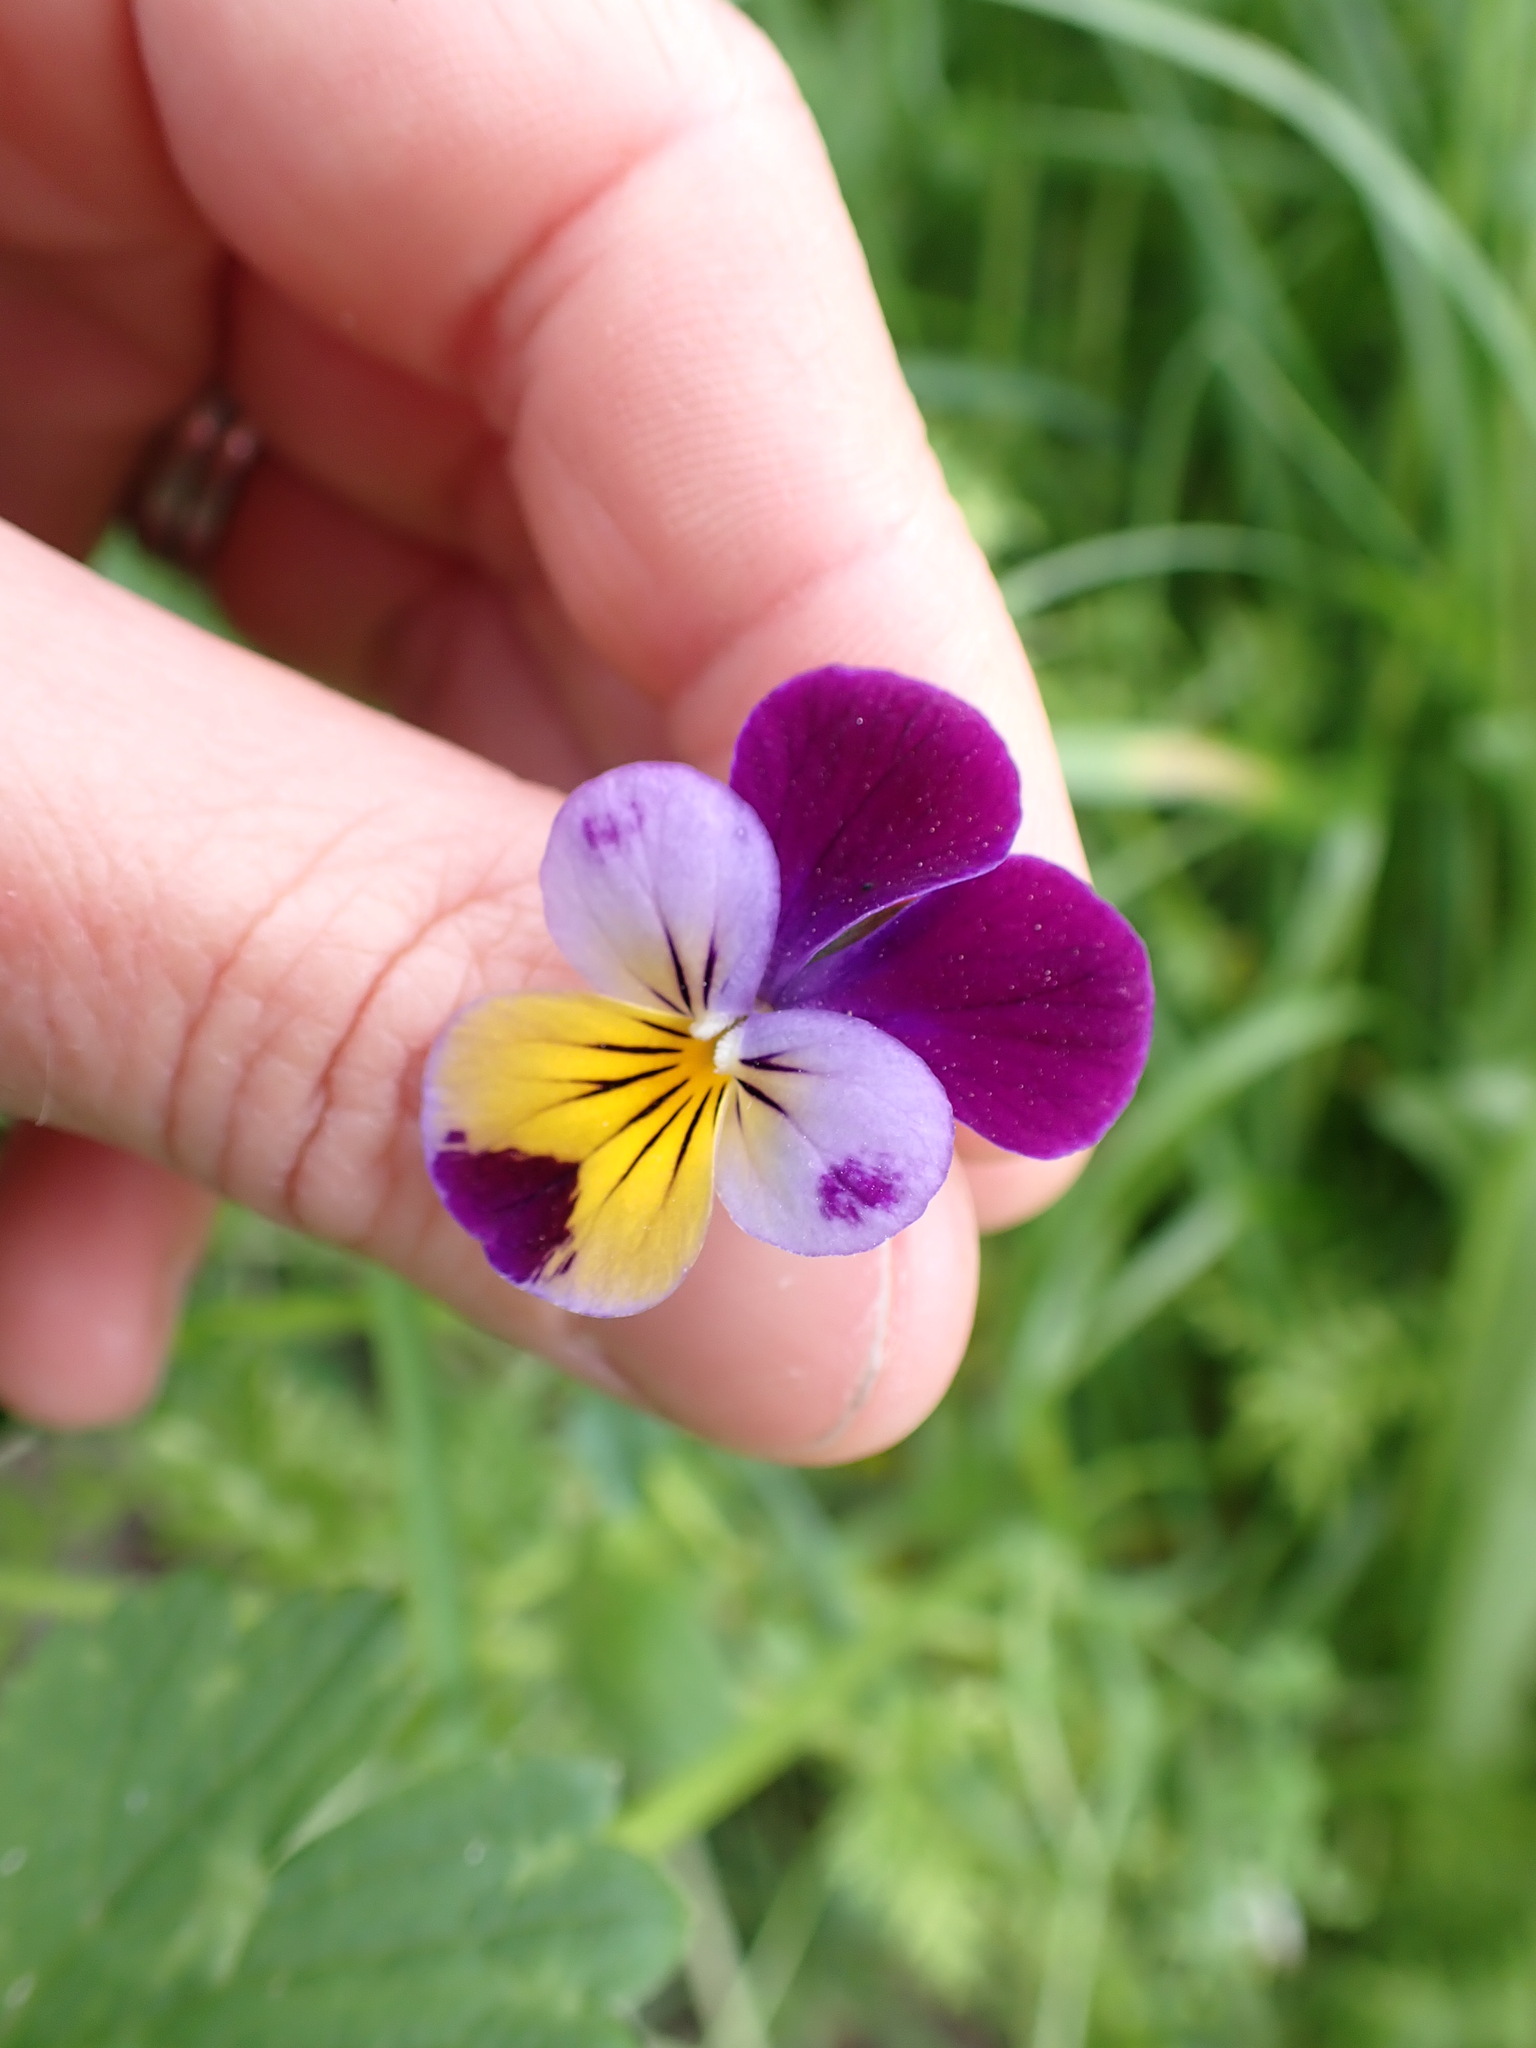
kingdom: Plantae
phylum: Tracheophyta
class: Magnoliopsida
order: Malpighiales
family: Violaceae
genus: Viola
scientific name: Viola wittrockiana
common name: Garden pansy
